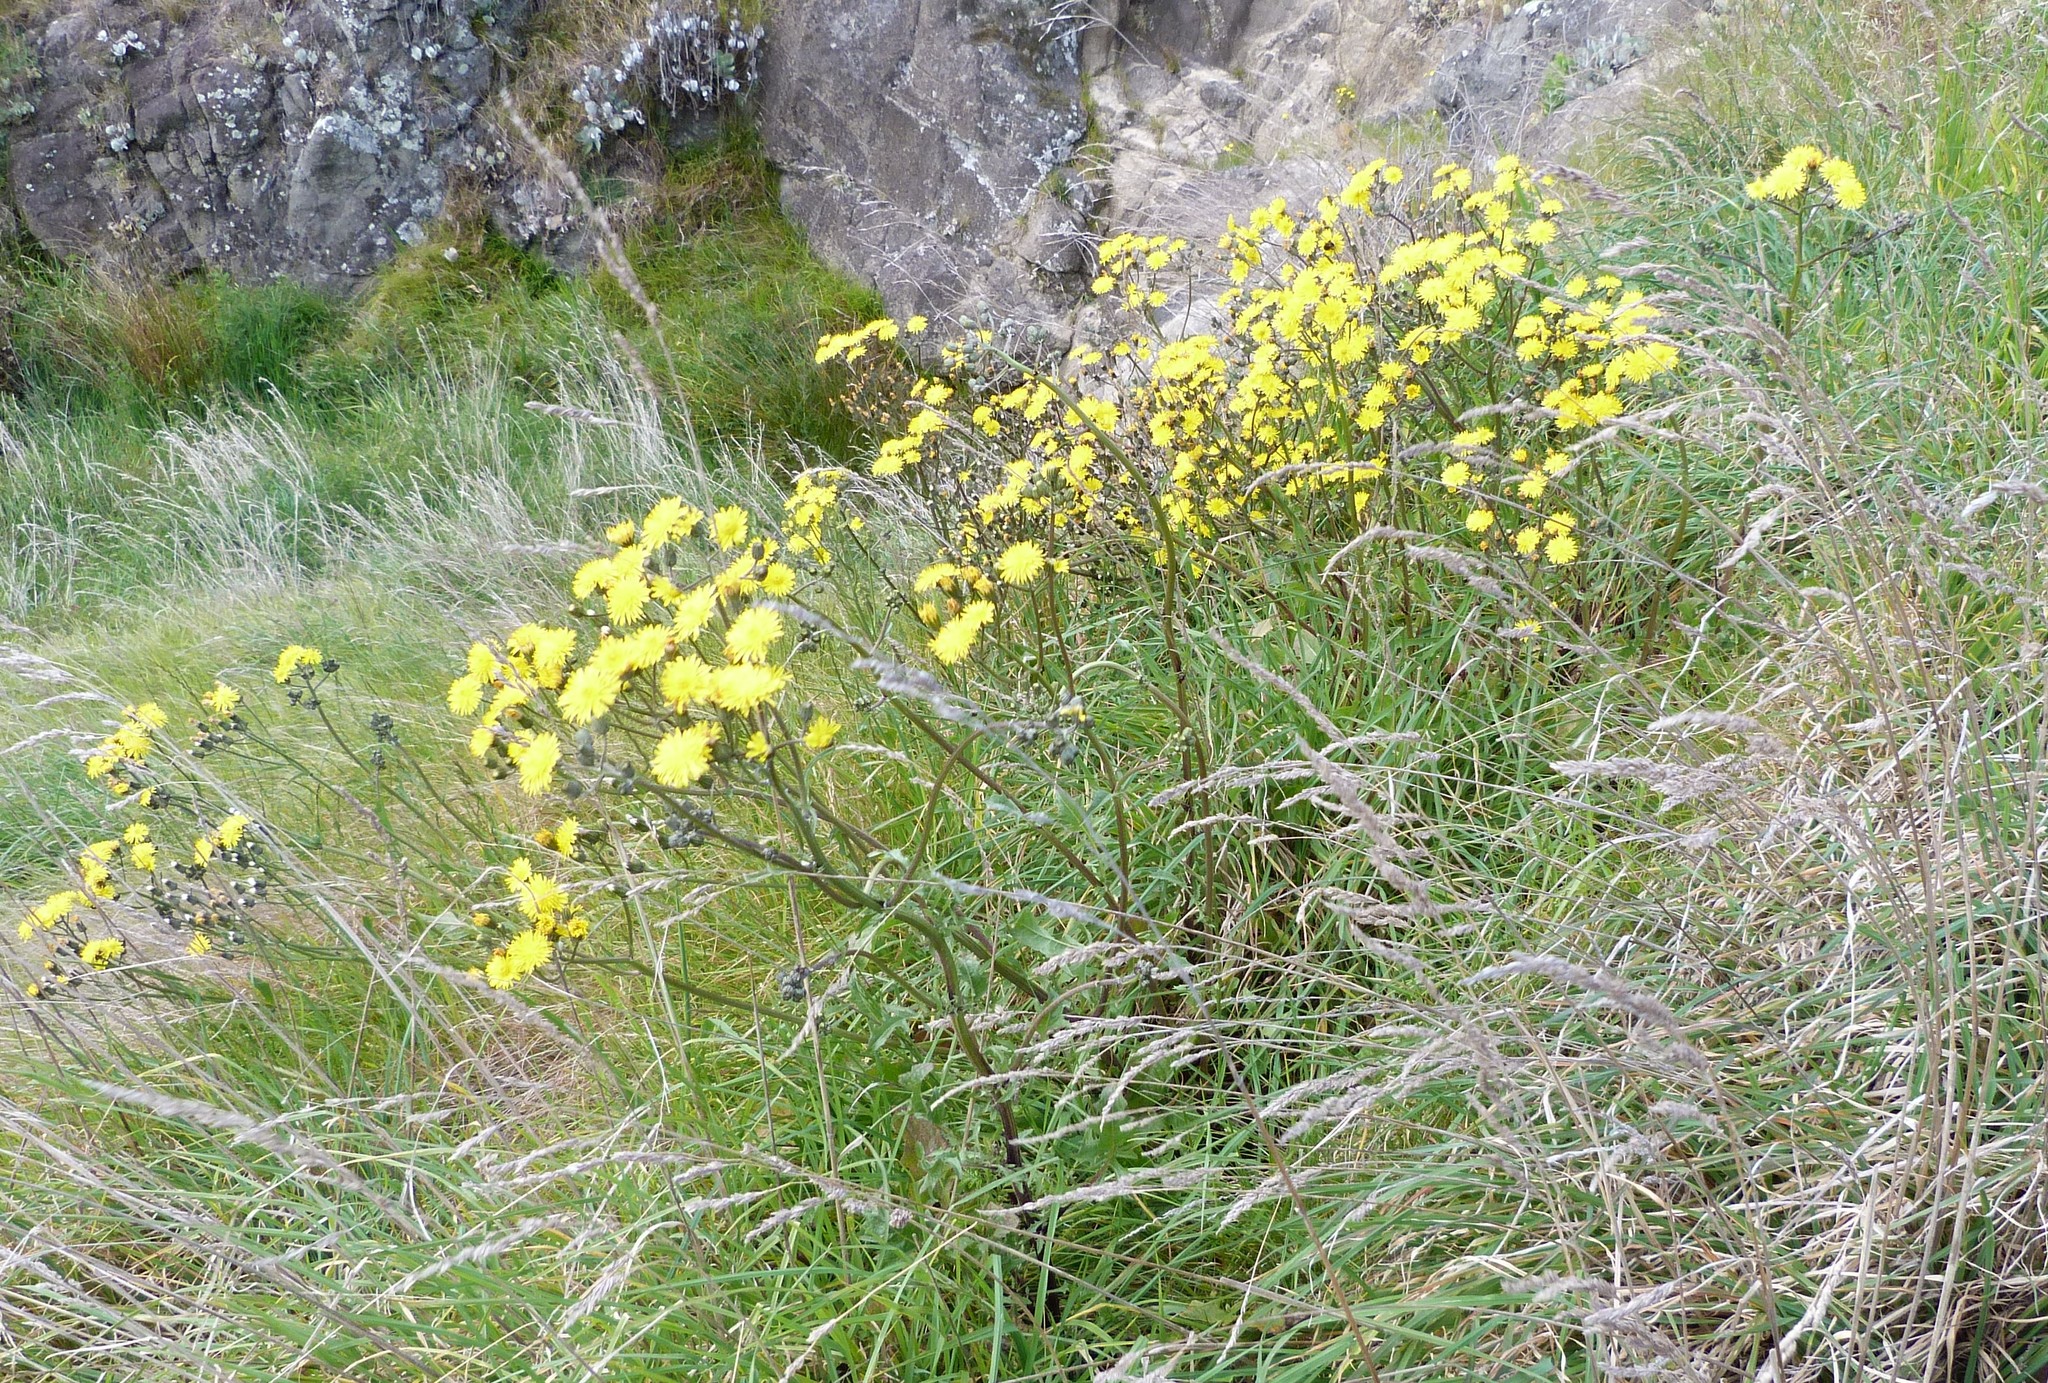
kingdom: Plantae
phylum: Tracheophyta
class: Magnoliopsida
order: Asterales
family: Asteraceae
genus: Crepis
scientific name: Crepis vesicaria
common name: Beaked hawksbeard
